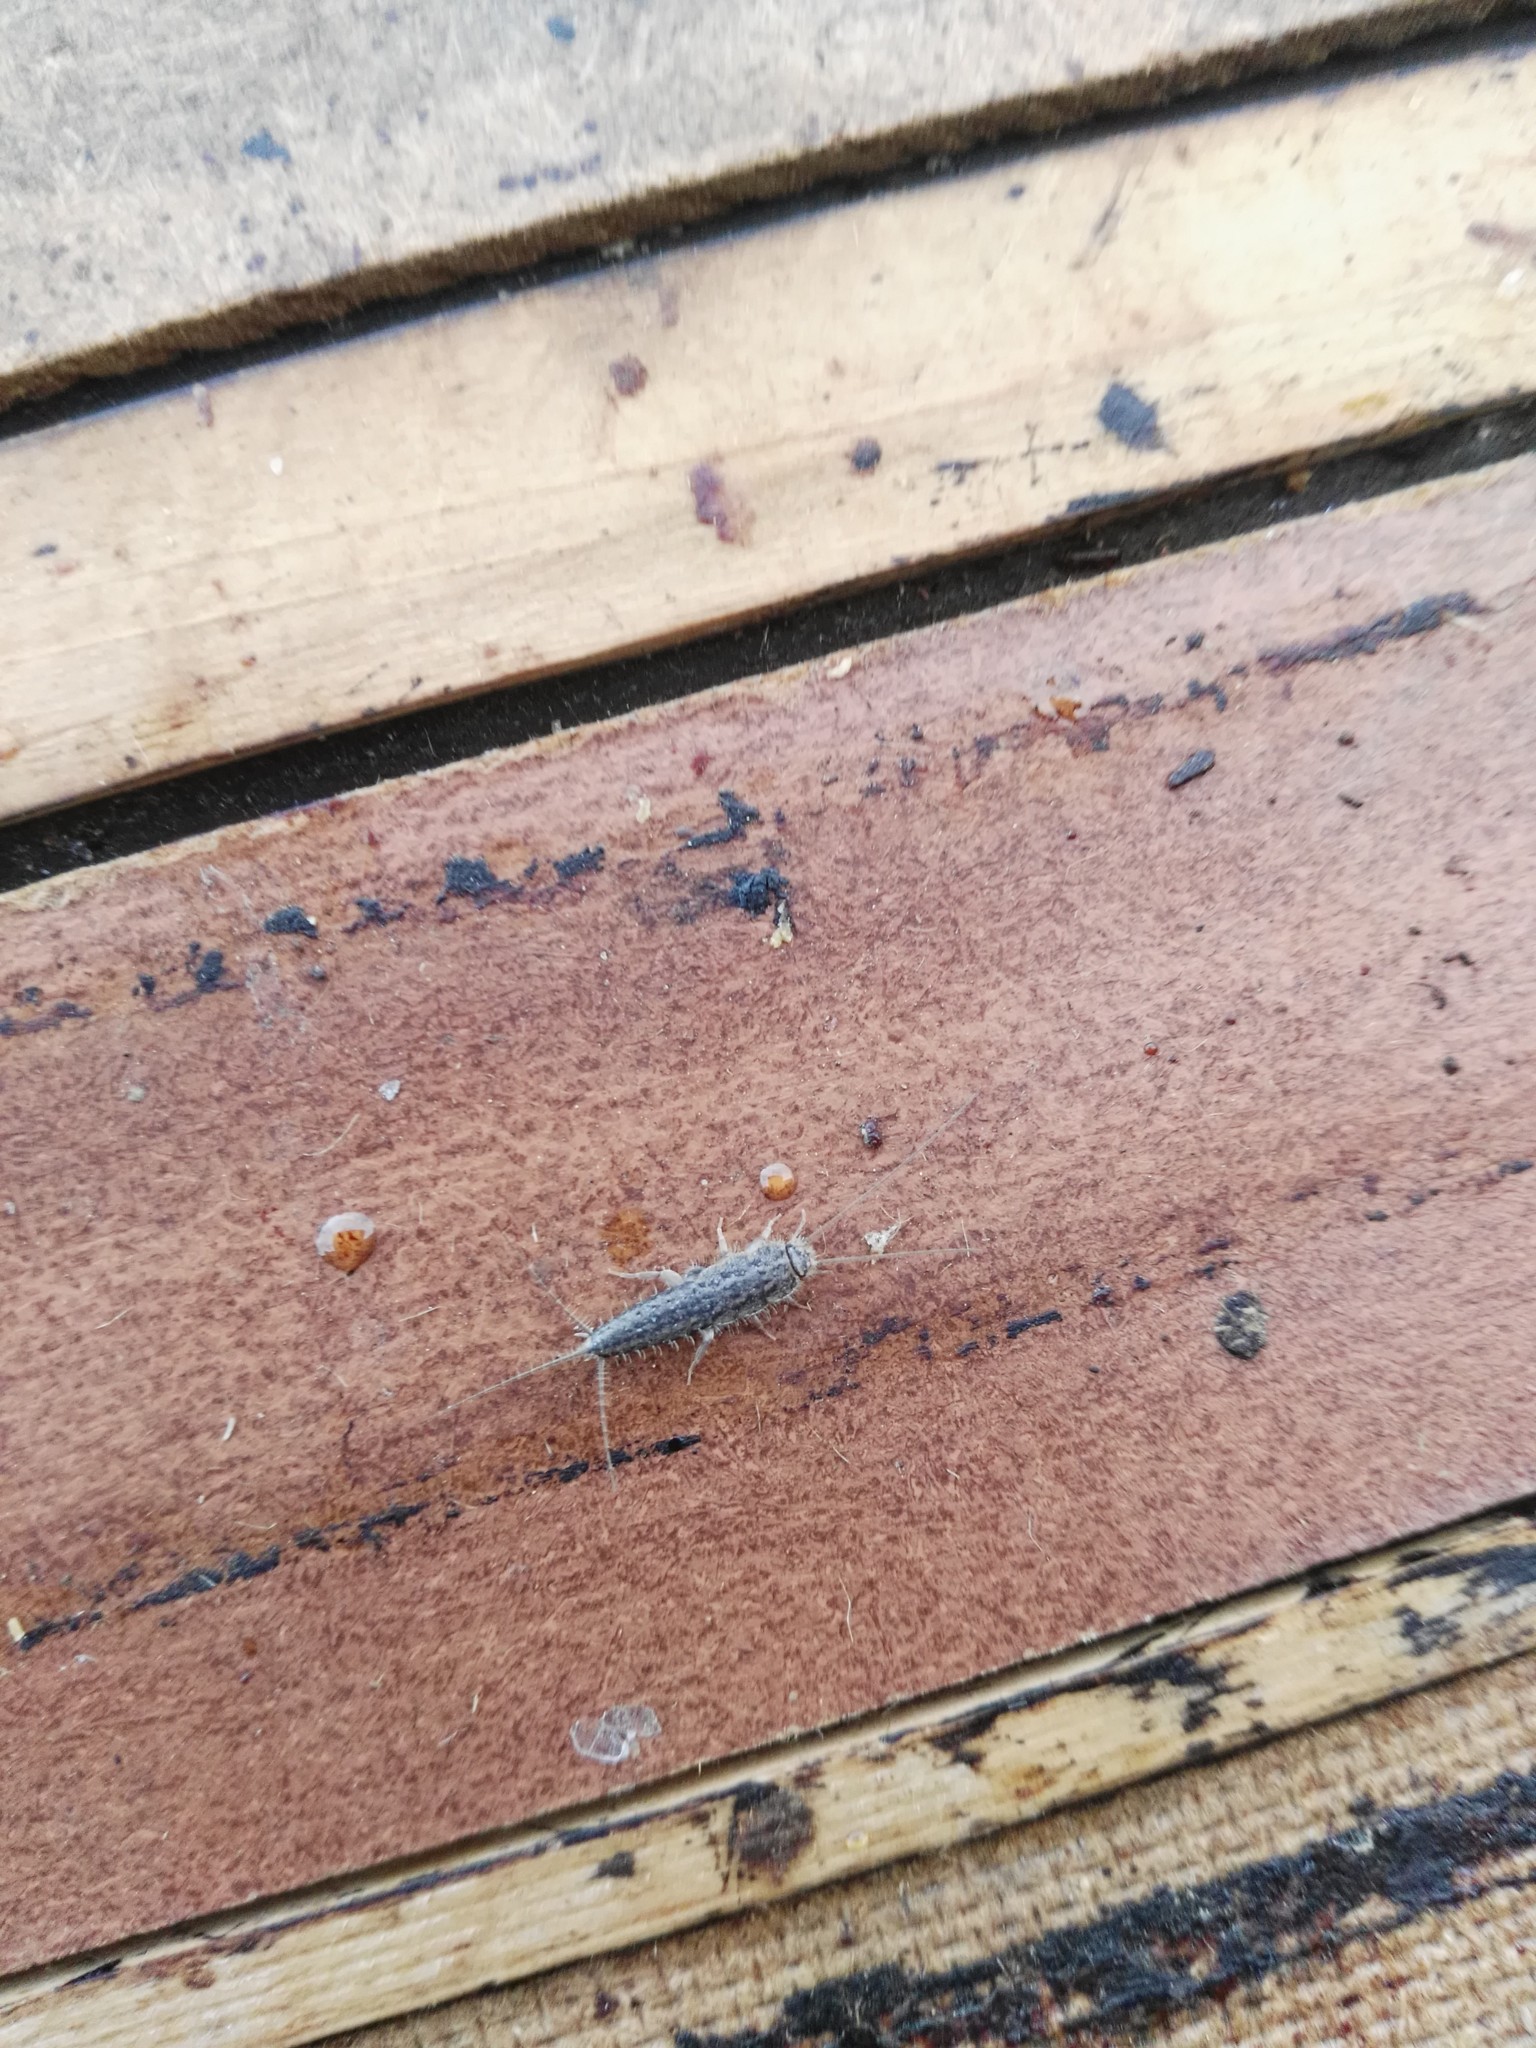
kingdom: Animalia
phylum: Arthropoda
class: Insecta
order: Zygentoma
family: Lepismatidae
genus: Ctenolepisma
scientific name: Ctenolepisma lineata
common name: Four-lined silverfish
